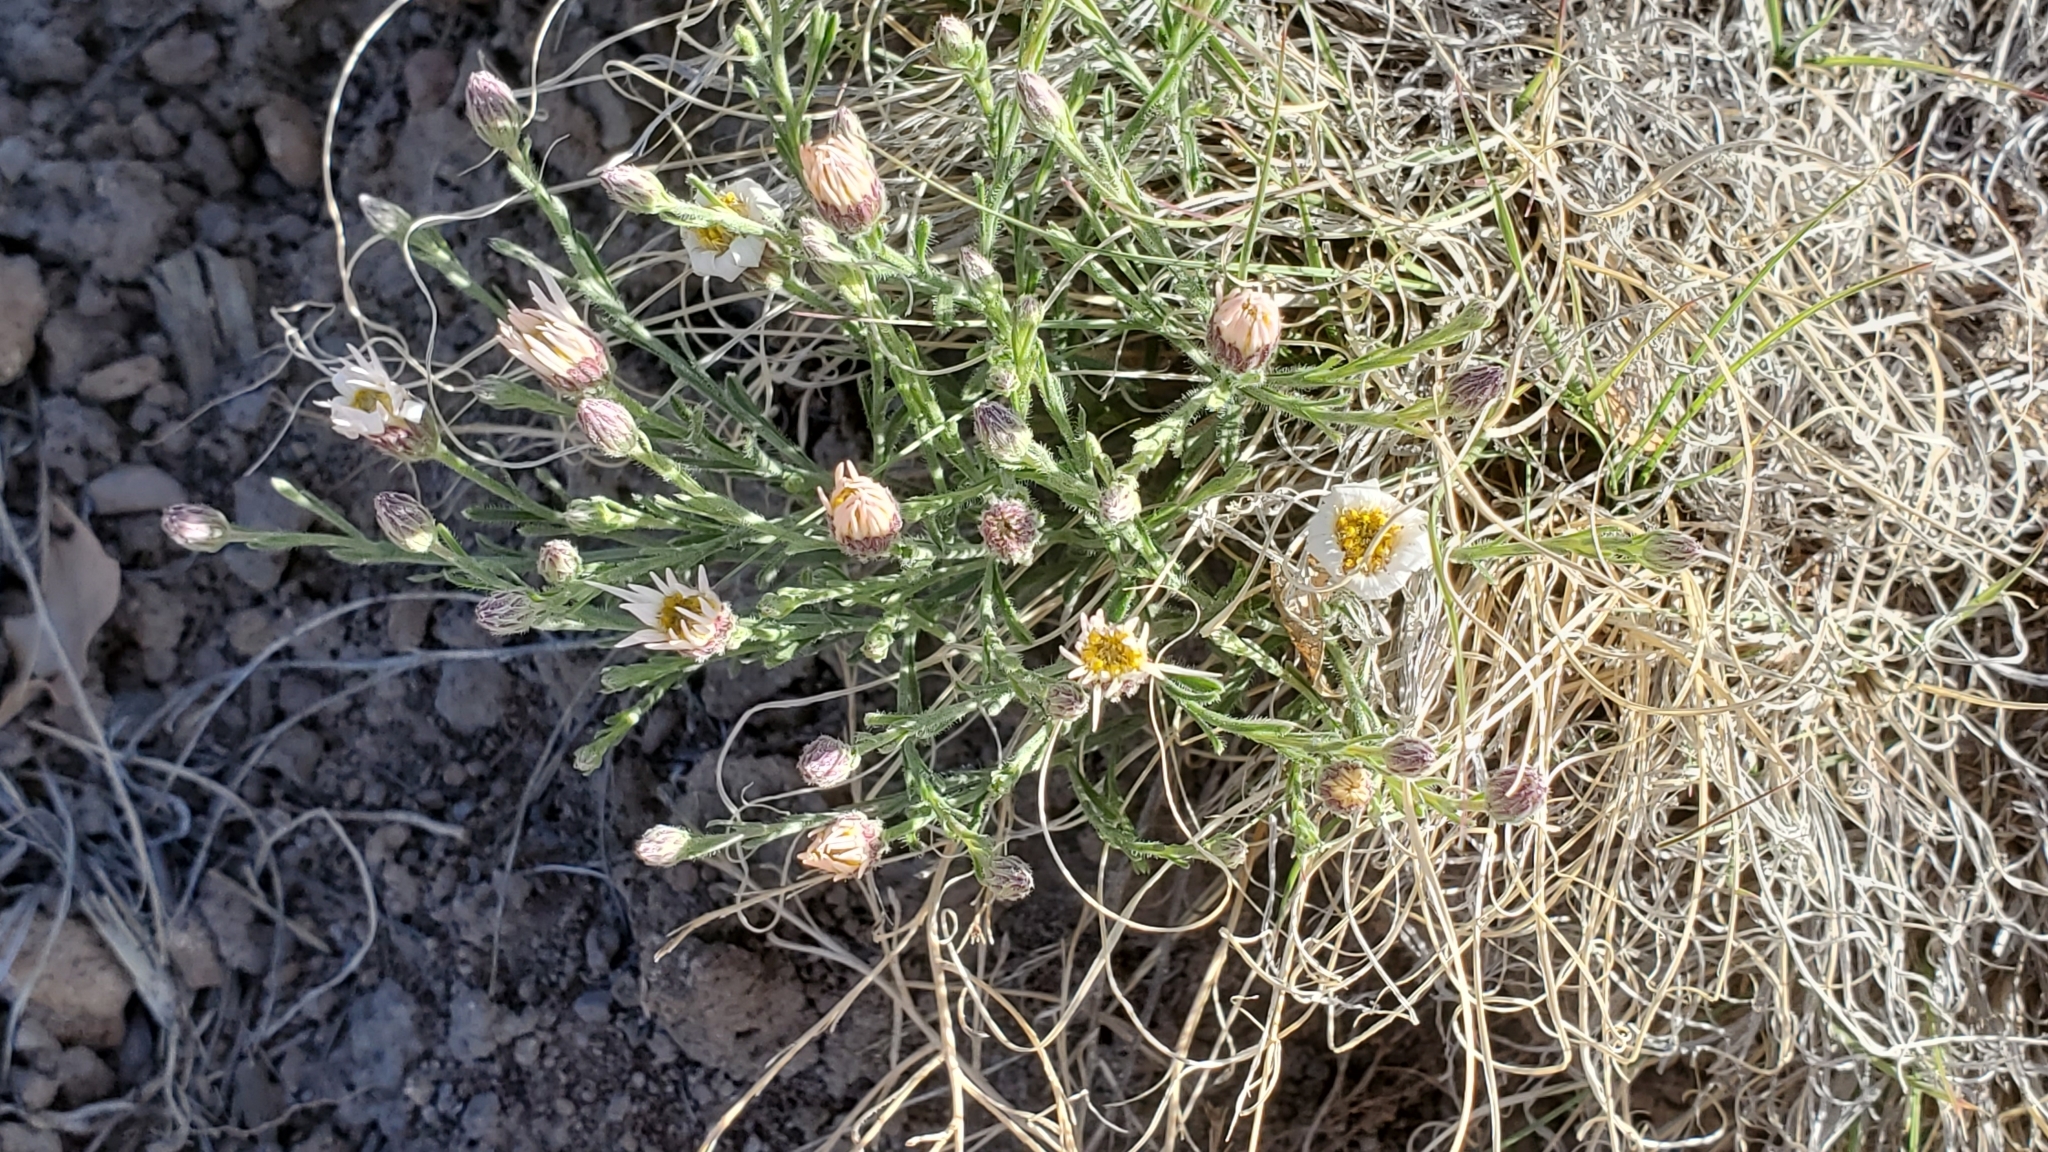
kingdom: Plantae
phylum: Tracheophyta
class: Magnoliopsida
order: Asterales
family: Asteraceae
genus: Chaetopappa
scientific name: Chaetopappa ericoides
